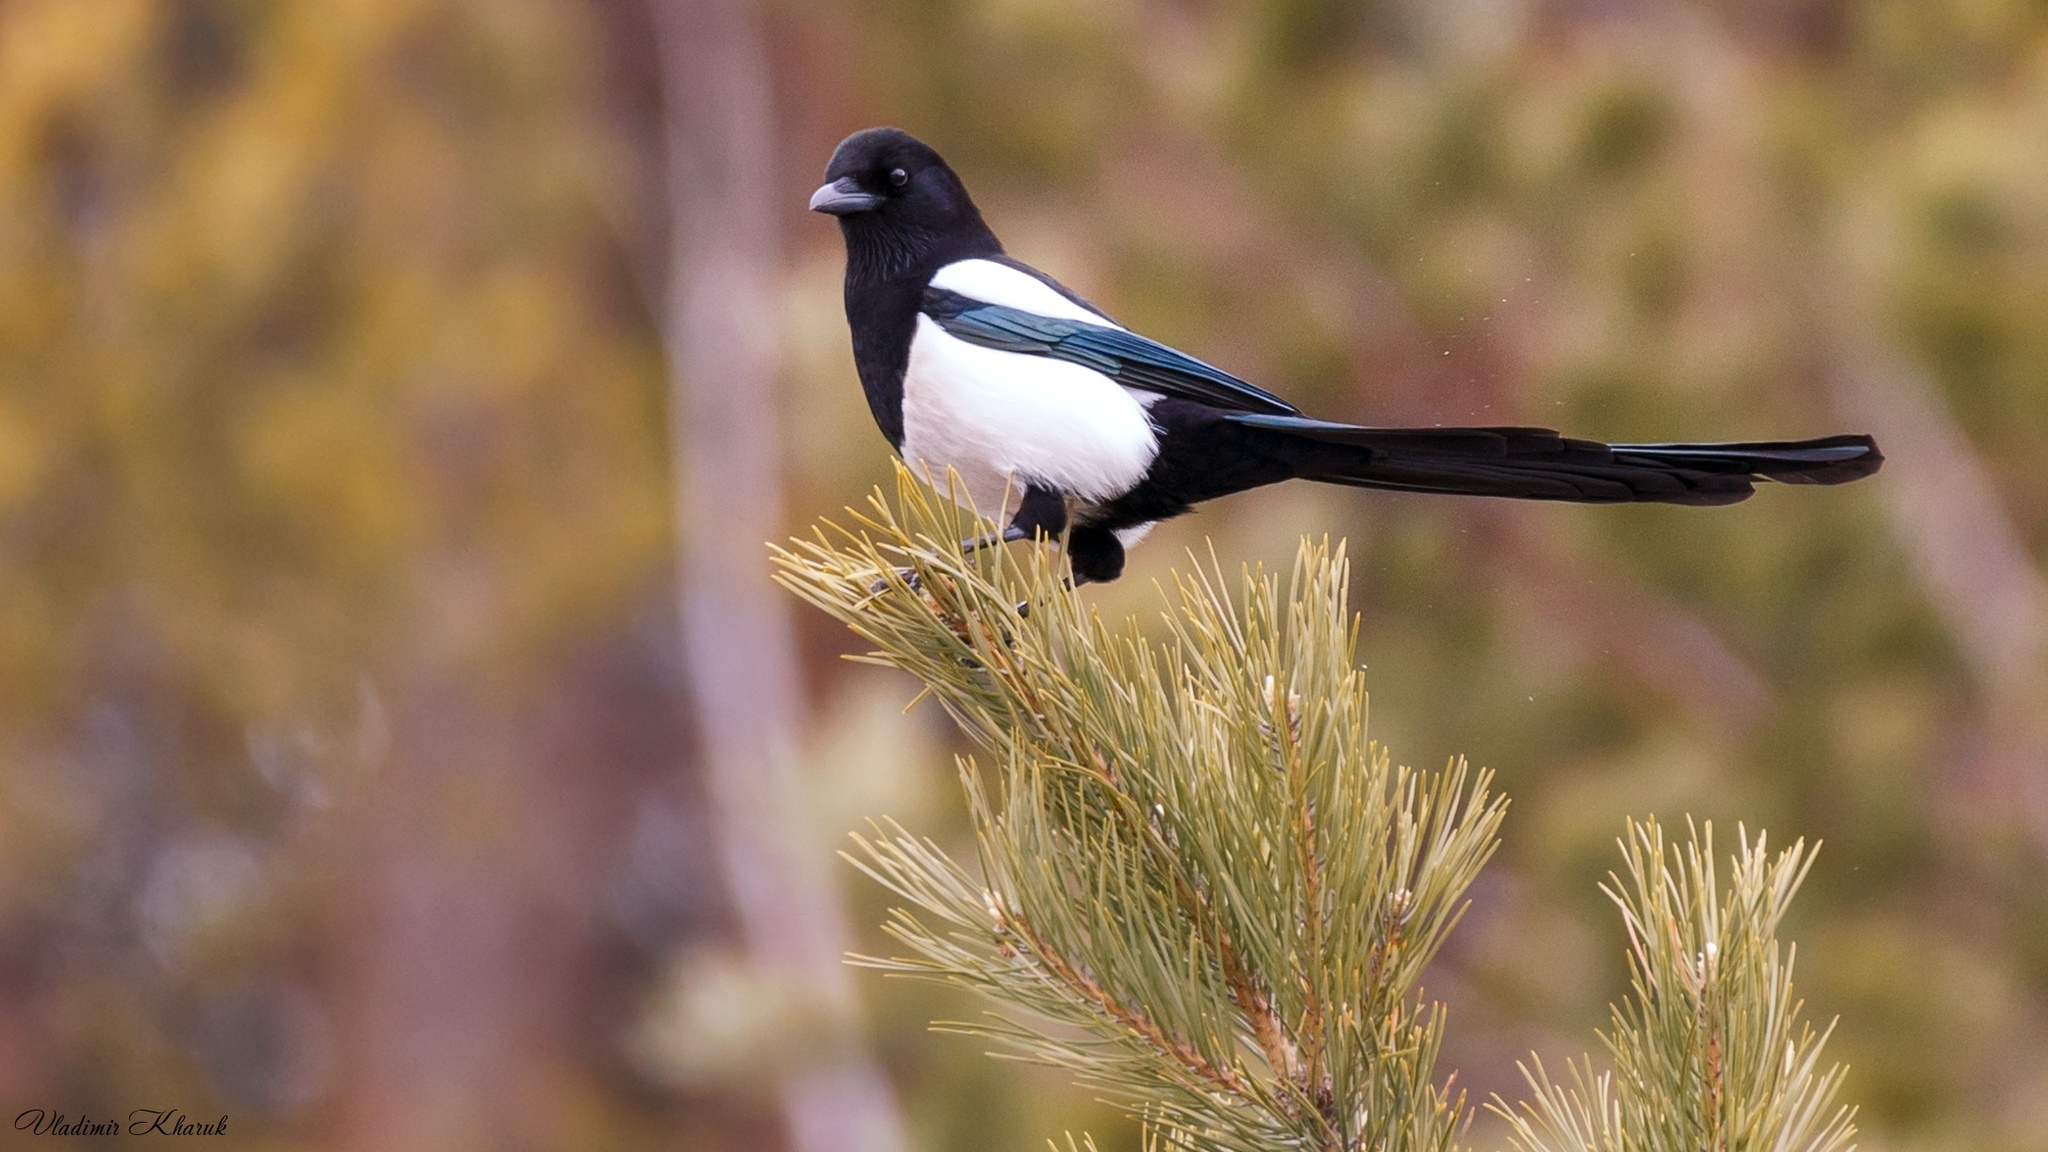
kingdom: Animalia
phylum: Chordata
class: Aves
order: Passeriformes
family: Corvidae
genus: Pica
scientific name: Pica pica
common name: Eurasian magpie
